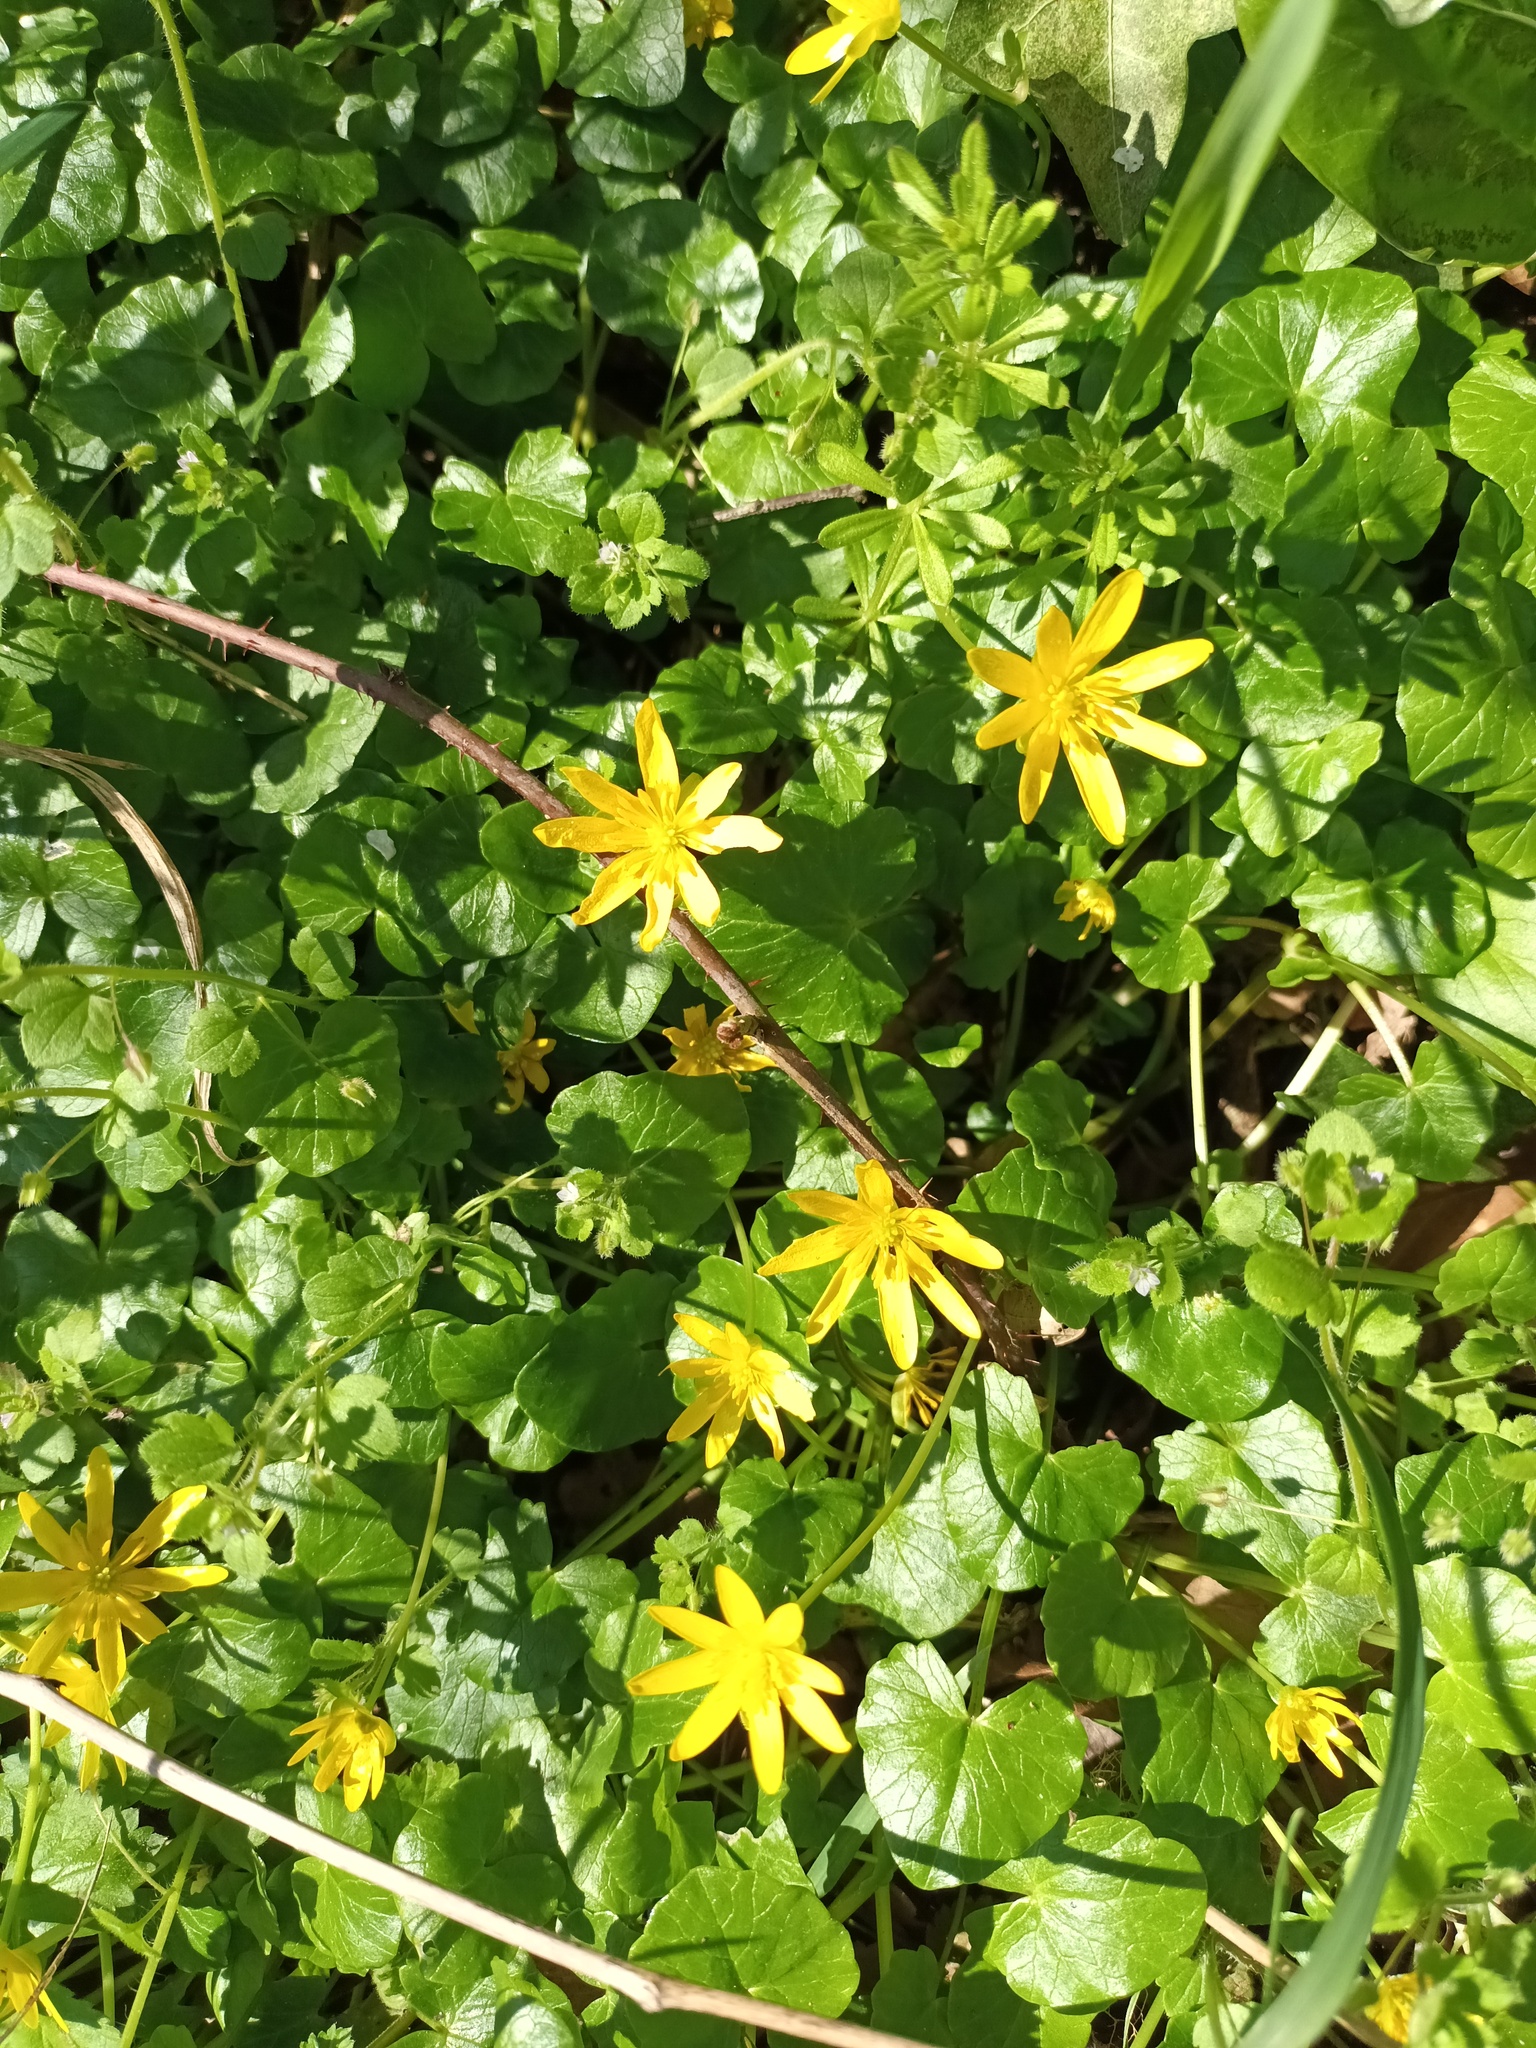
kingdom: Plantae
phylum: Tracheophyta
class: Magnoliopsida
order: Ranunculales
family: Ranunculaceae
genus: Ficaria
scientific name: Ficaria verna
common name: Lesser celandine
